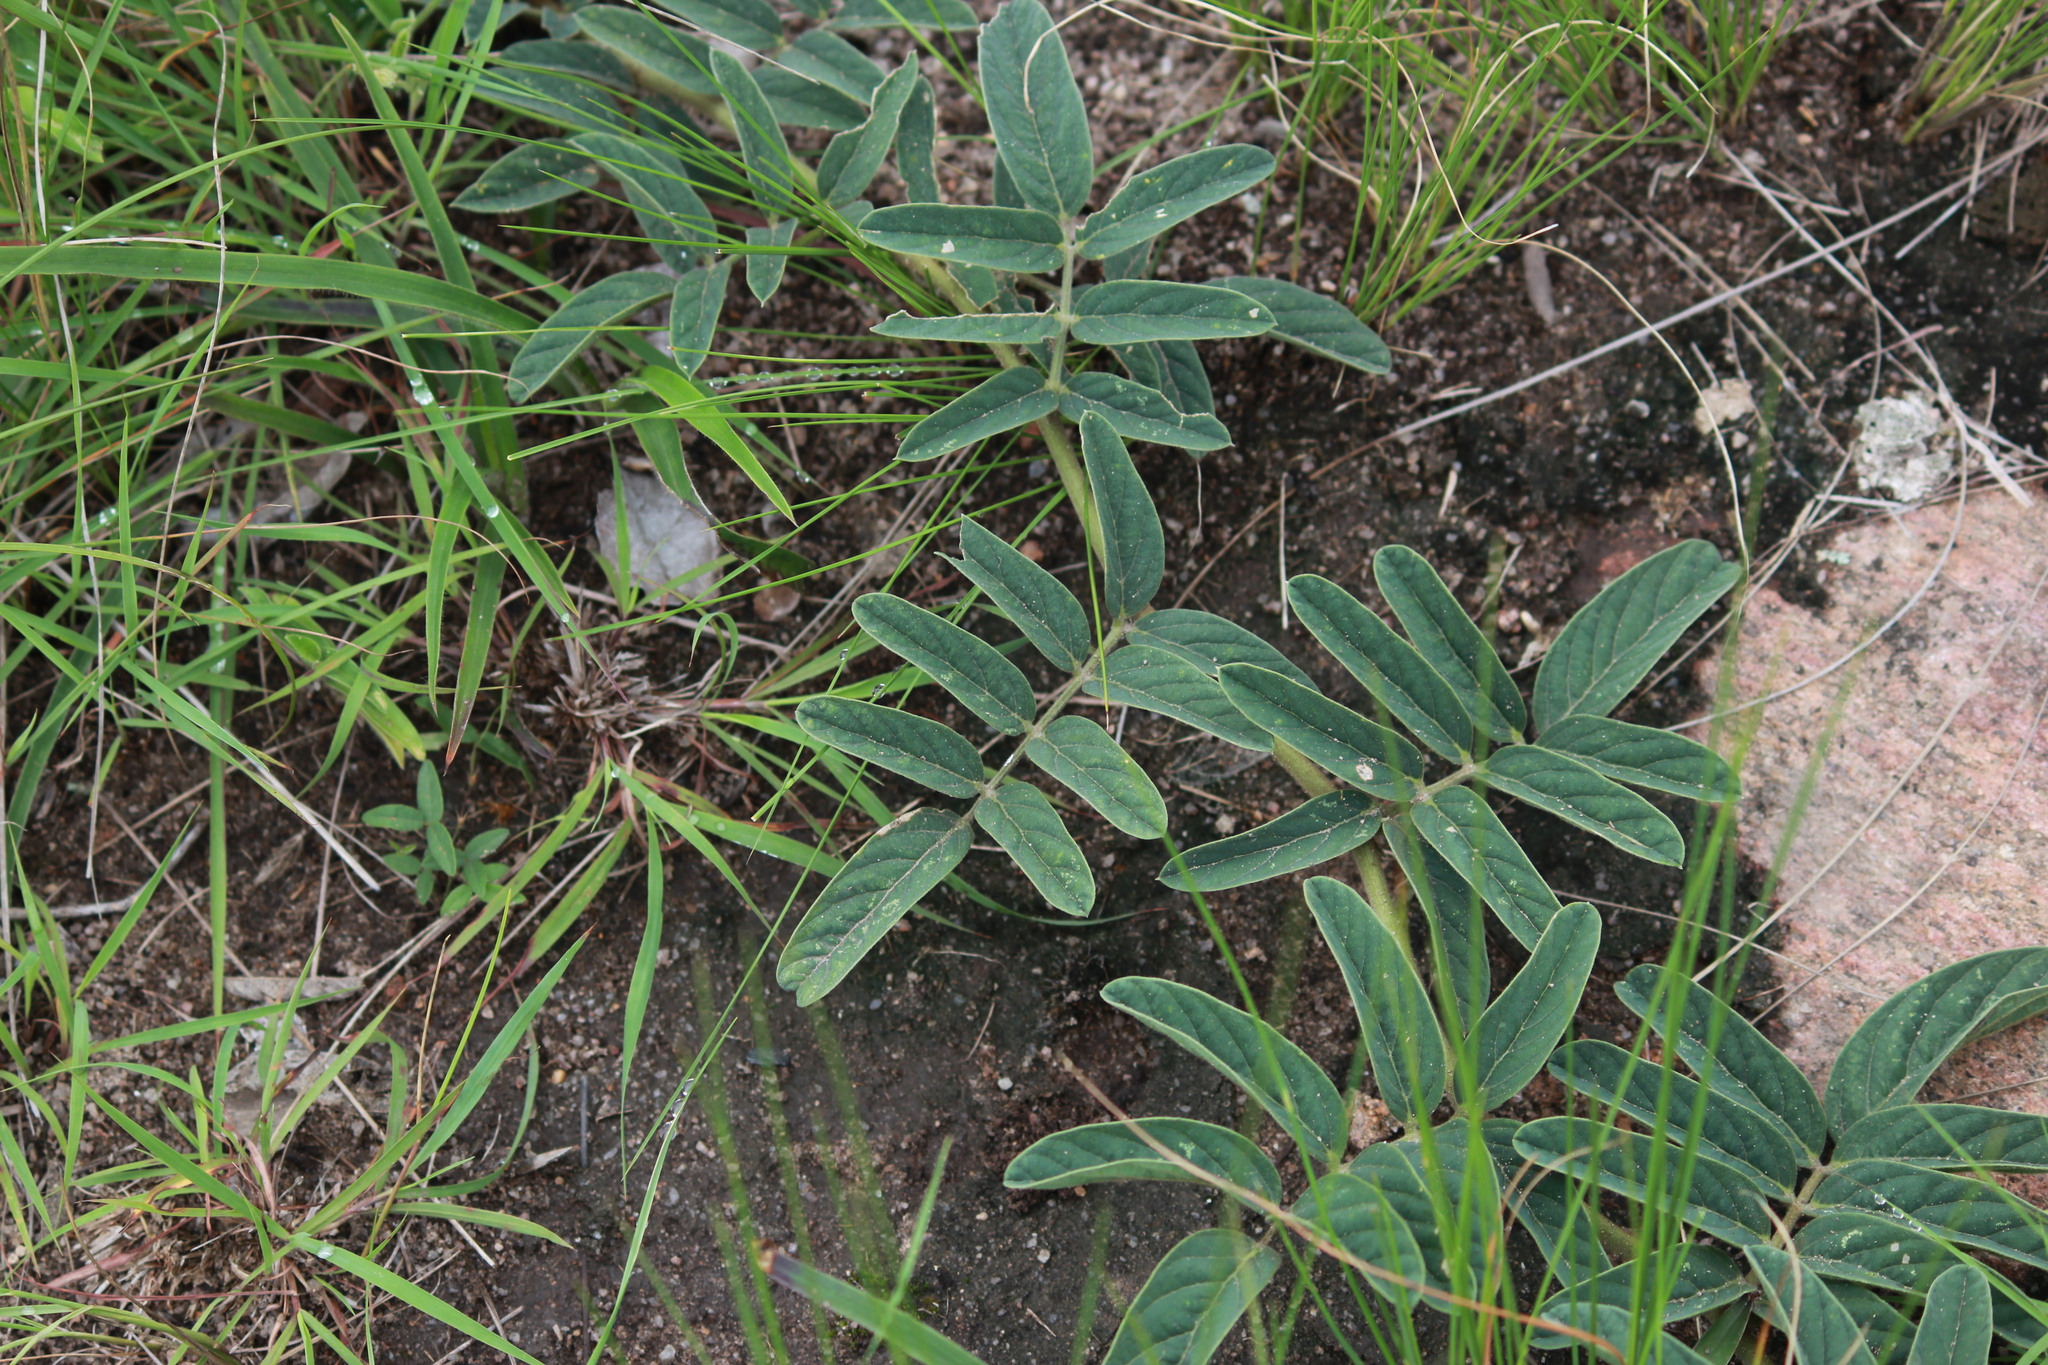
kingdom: Plantae
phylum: Tracheophyta
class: Magnoliopsida
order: Fabales
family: Fabaceae
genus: Ophrestia
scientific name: Ophrestia oblongifolia
